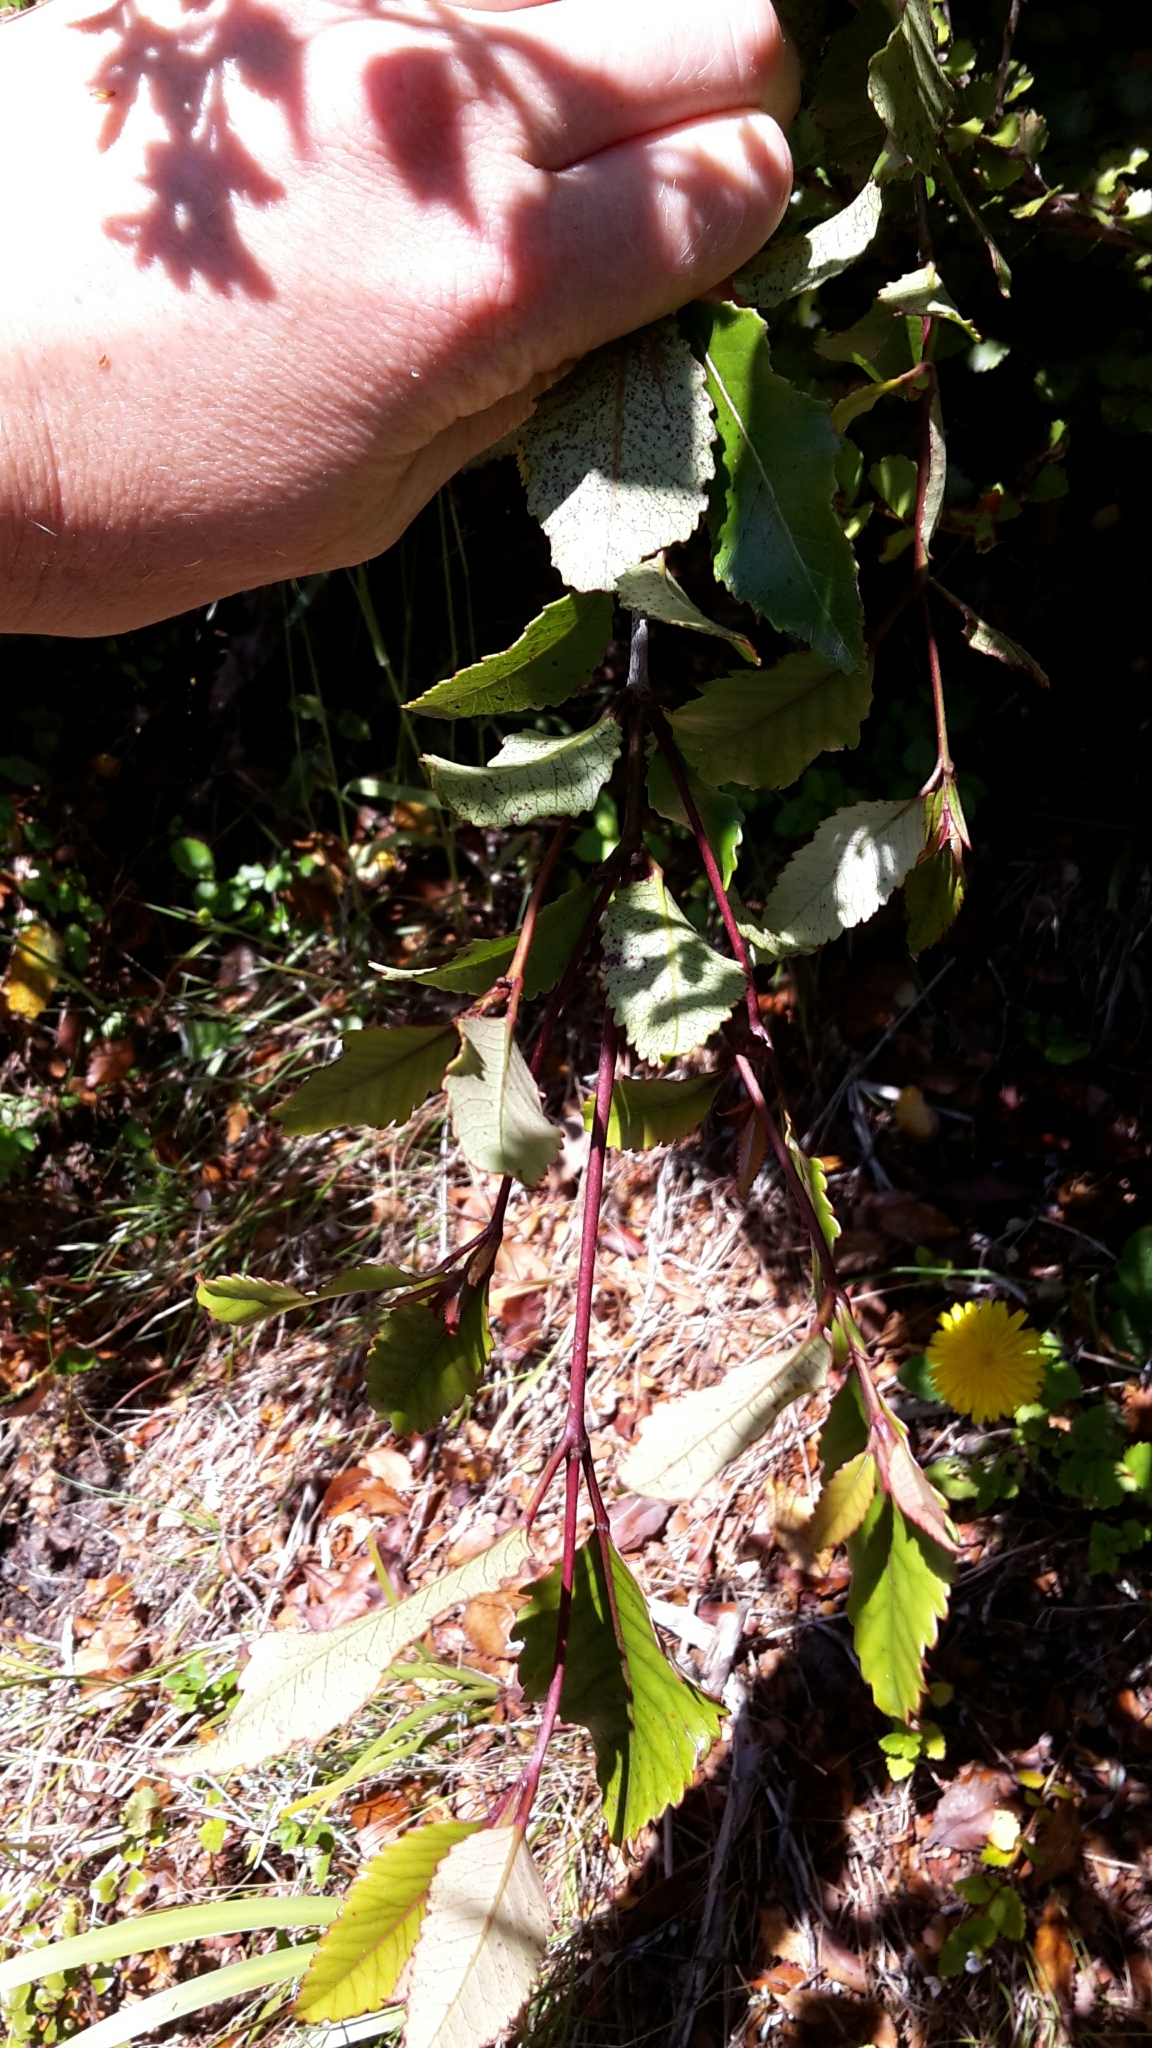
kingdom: Plantae
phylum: Tracheophyta
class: Magnoliopsida
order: Oxalidales
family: Cunoniaceae
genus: Pterophylla
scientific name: Pterophylla racemosa
